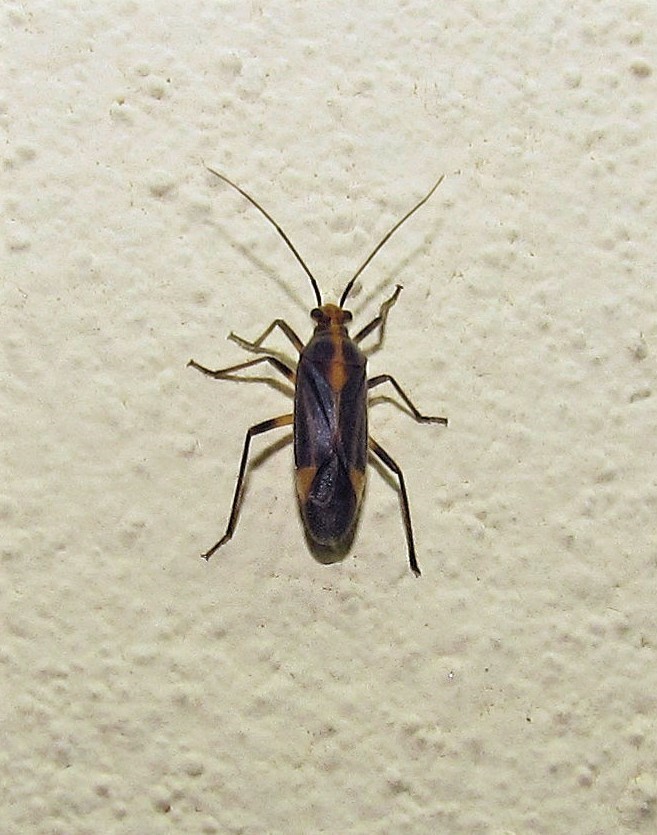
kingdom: Animalia
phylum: Arthropoda
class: Insecta
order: Hemiptera
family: Miridae
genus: Prepops
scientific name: Prepops cruciferus
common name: Plant bug
